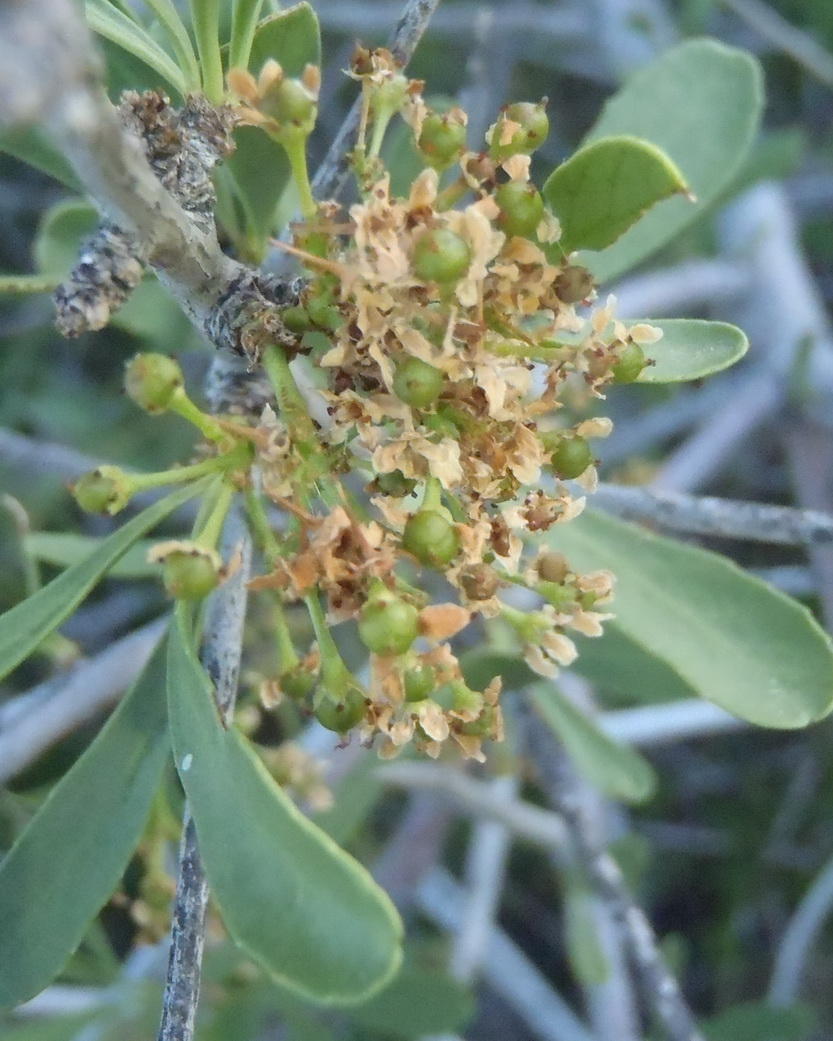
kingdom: Plantae
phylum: Tracheophyta
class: Magnoliopsida
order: Celastrales
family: Celastraceae
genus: Gymnosporia
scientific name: Gymnosporia buxifolia
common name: Common spike-thorn
